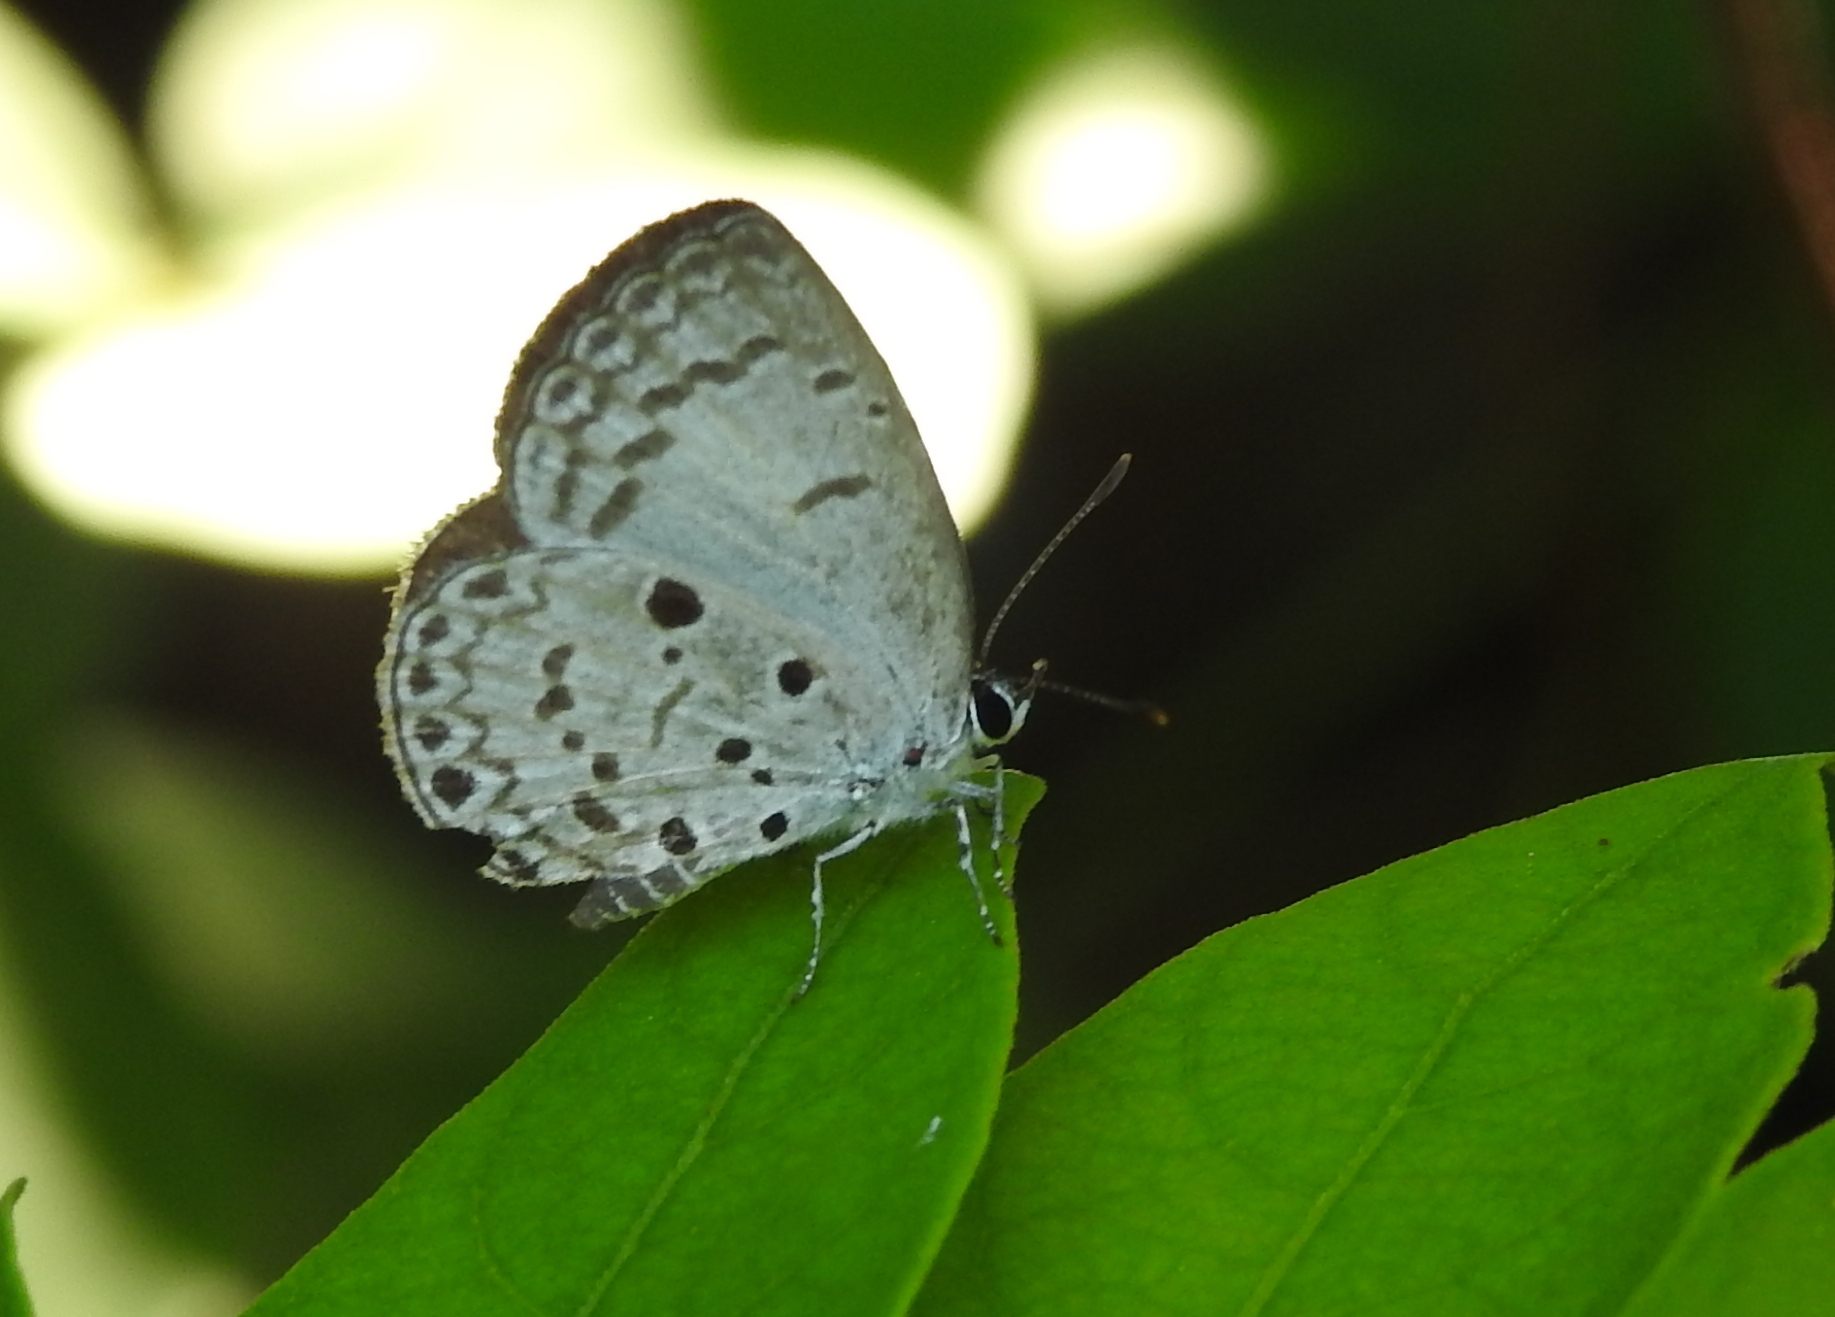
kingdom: Animalia
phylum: Arthropoda
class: Insecta
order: Lepidoptera
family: Lycaenidae
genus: Acytolepis
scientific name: Acytolepis puspa
